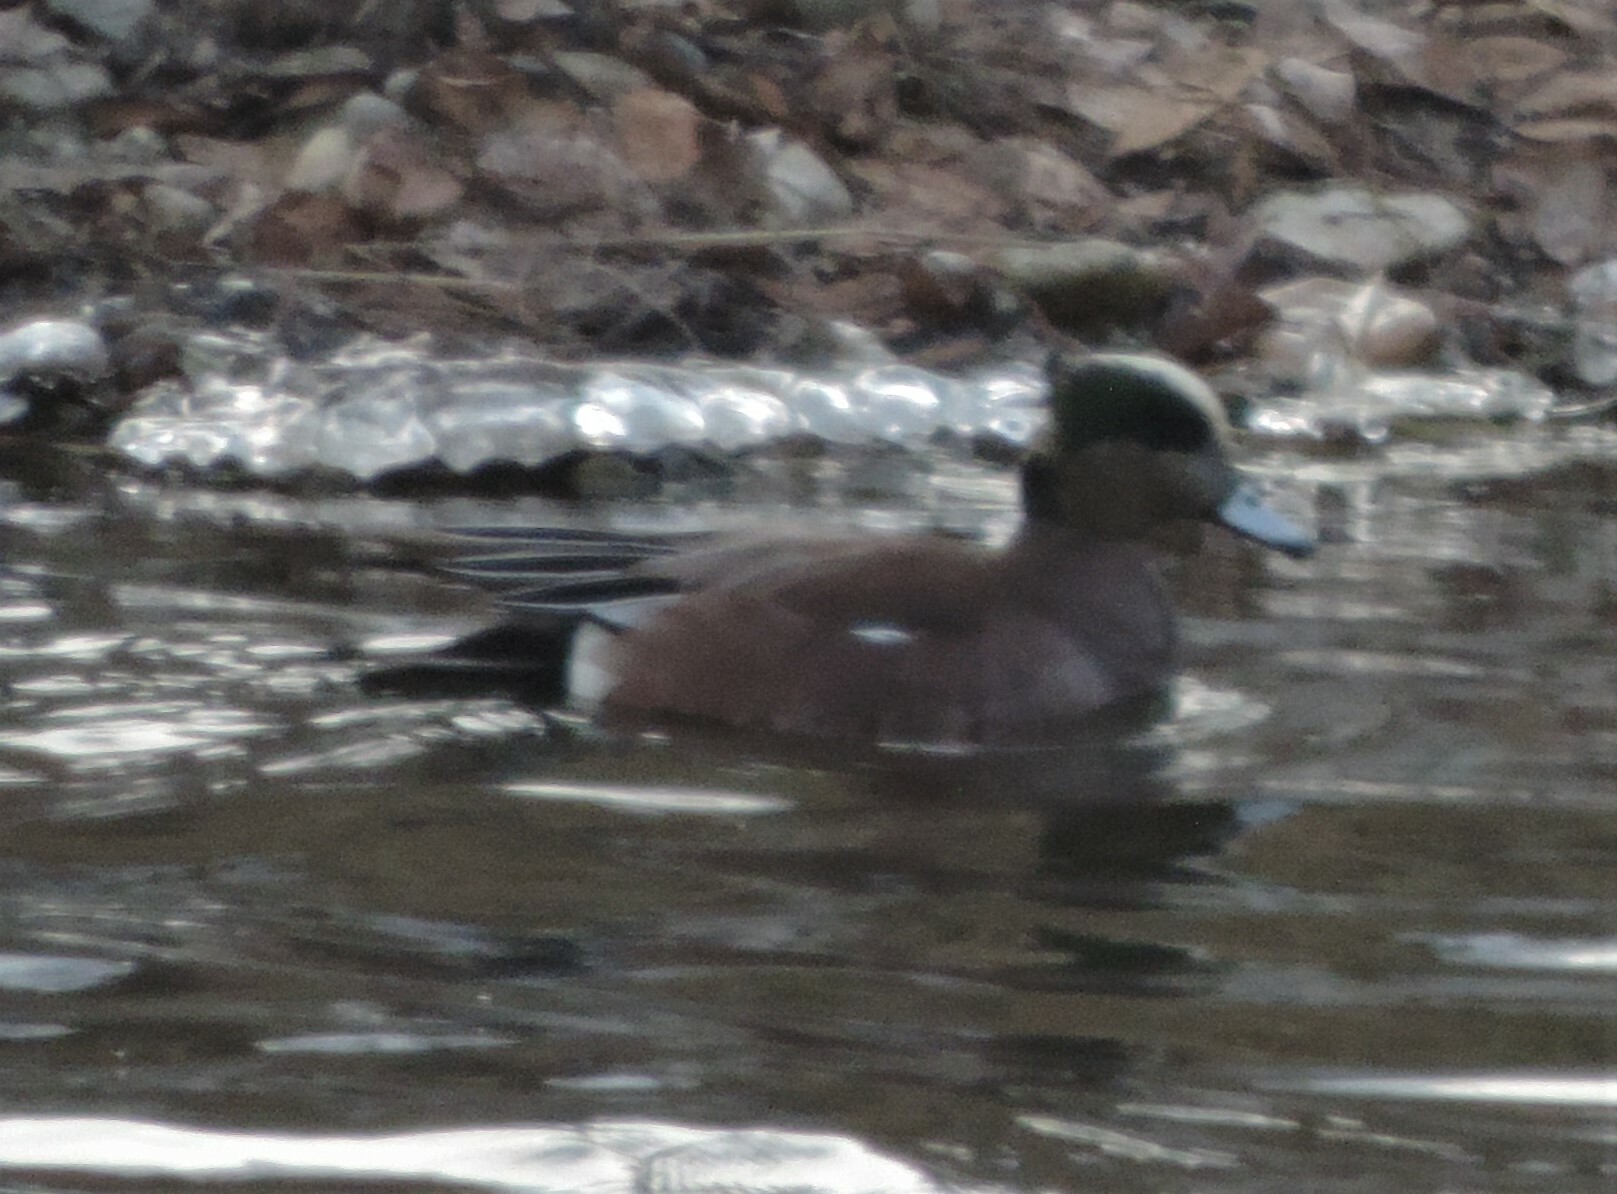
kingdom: Animalia
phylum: Chordata
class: Aves
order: Anseriformes
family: Anatidae
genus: Mareca
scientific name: Mareca americana
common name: American wigeon
